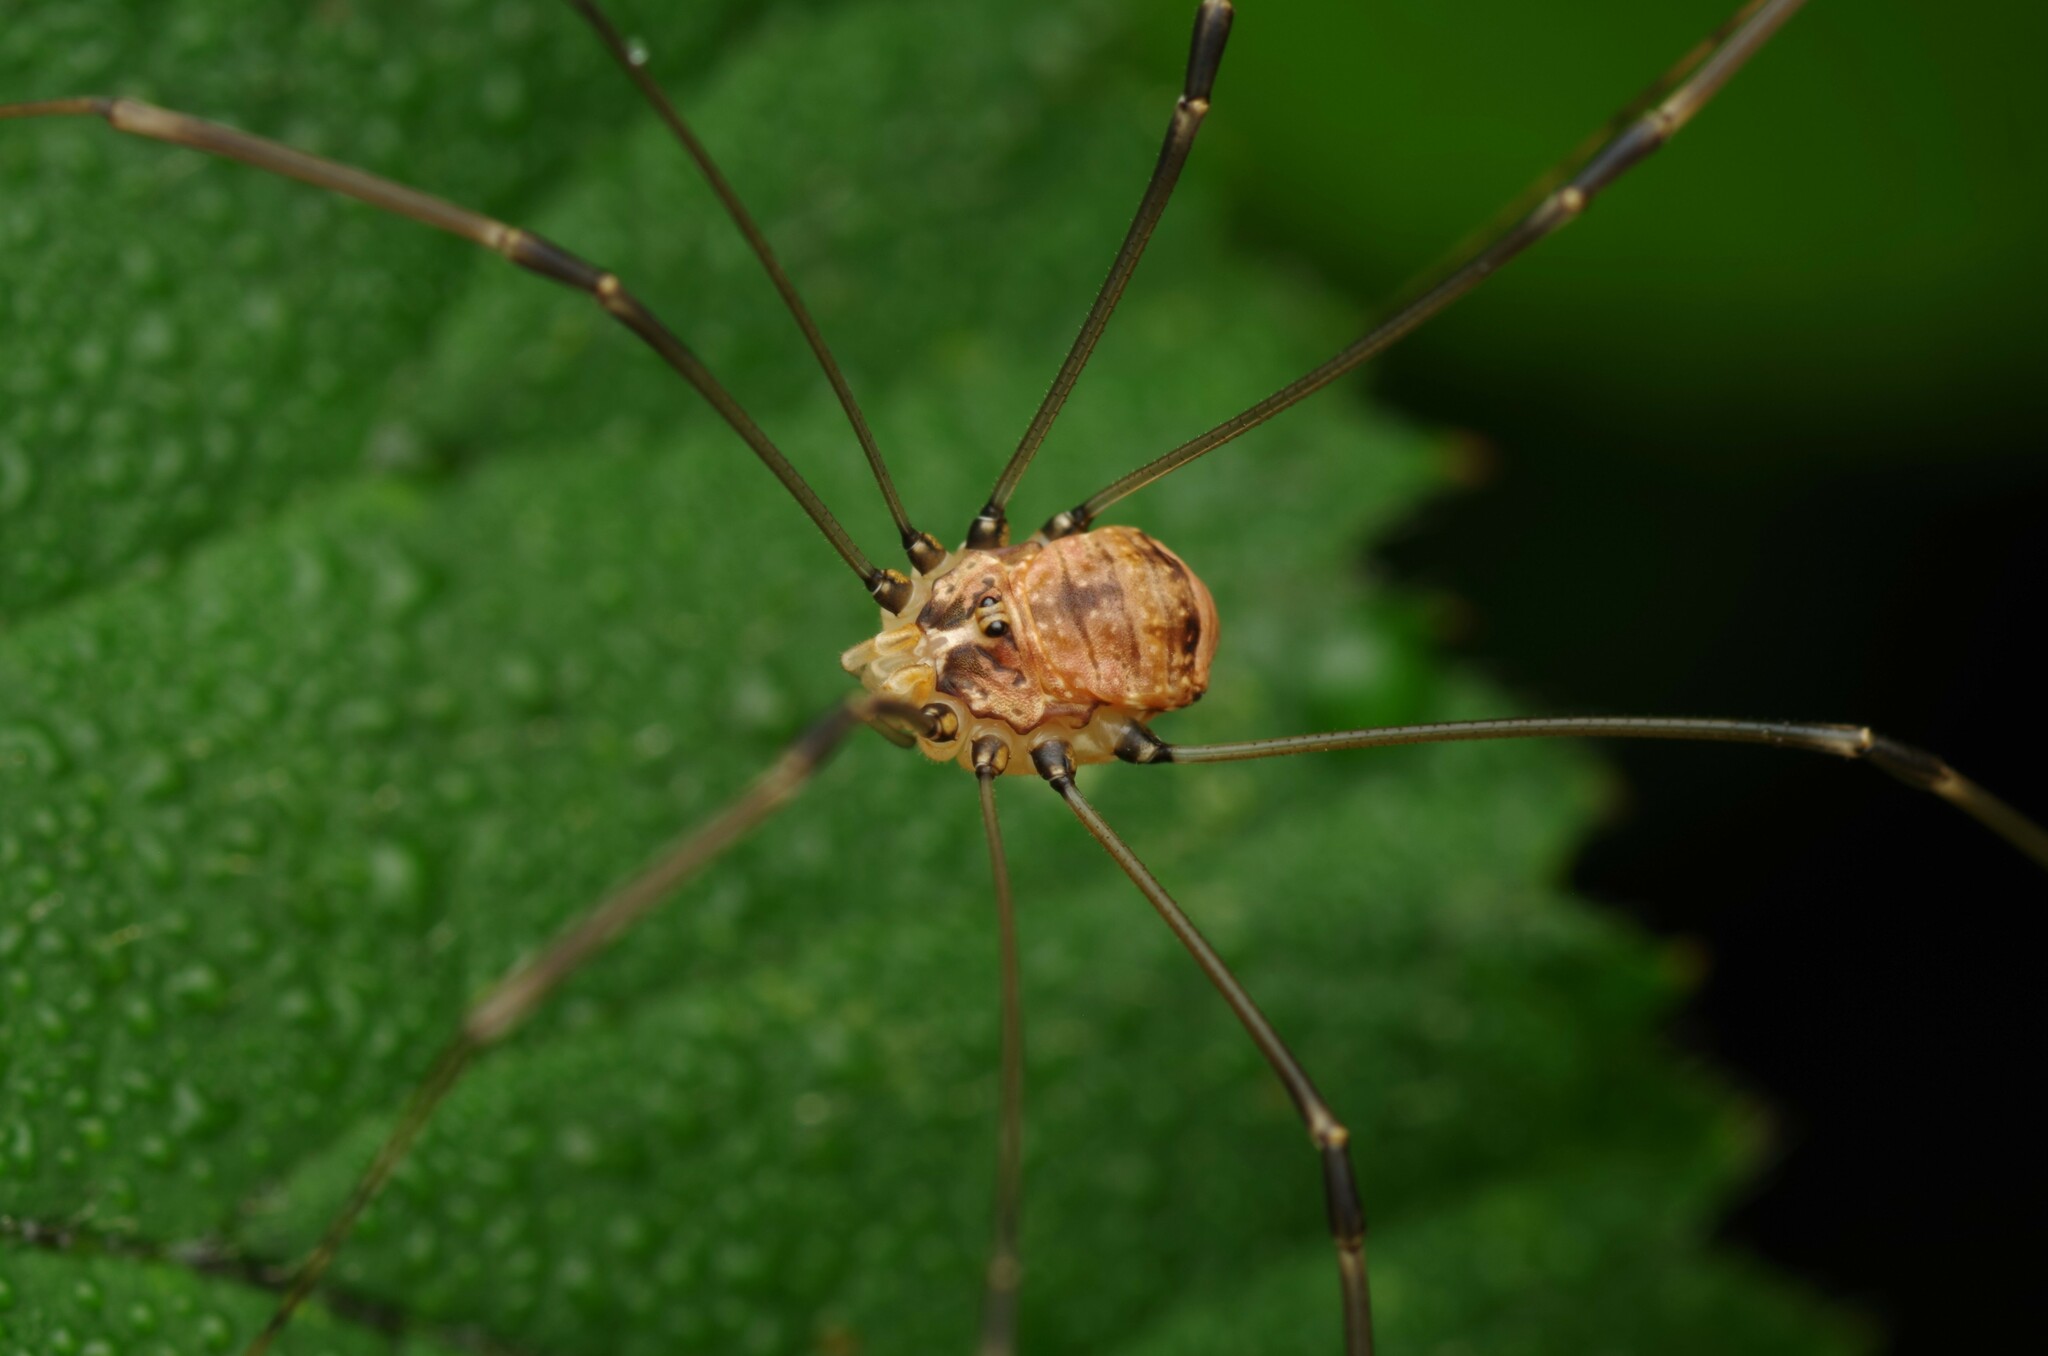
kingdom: Animalia
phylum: Arthropoda
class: Arachnida
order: Opiliones
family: Sclerosomatidae
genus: Leiobunum
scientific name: Leiobunum blackwalli
